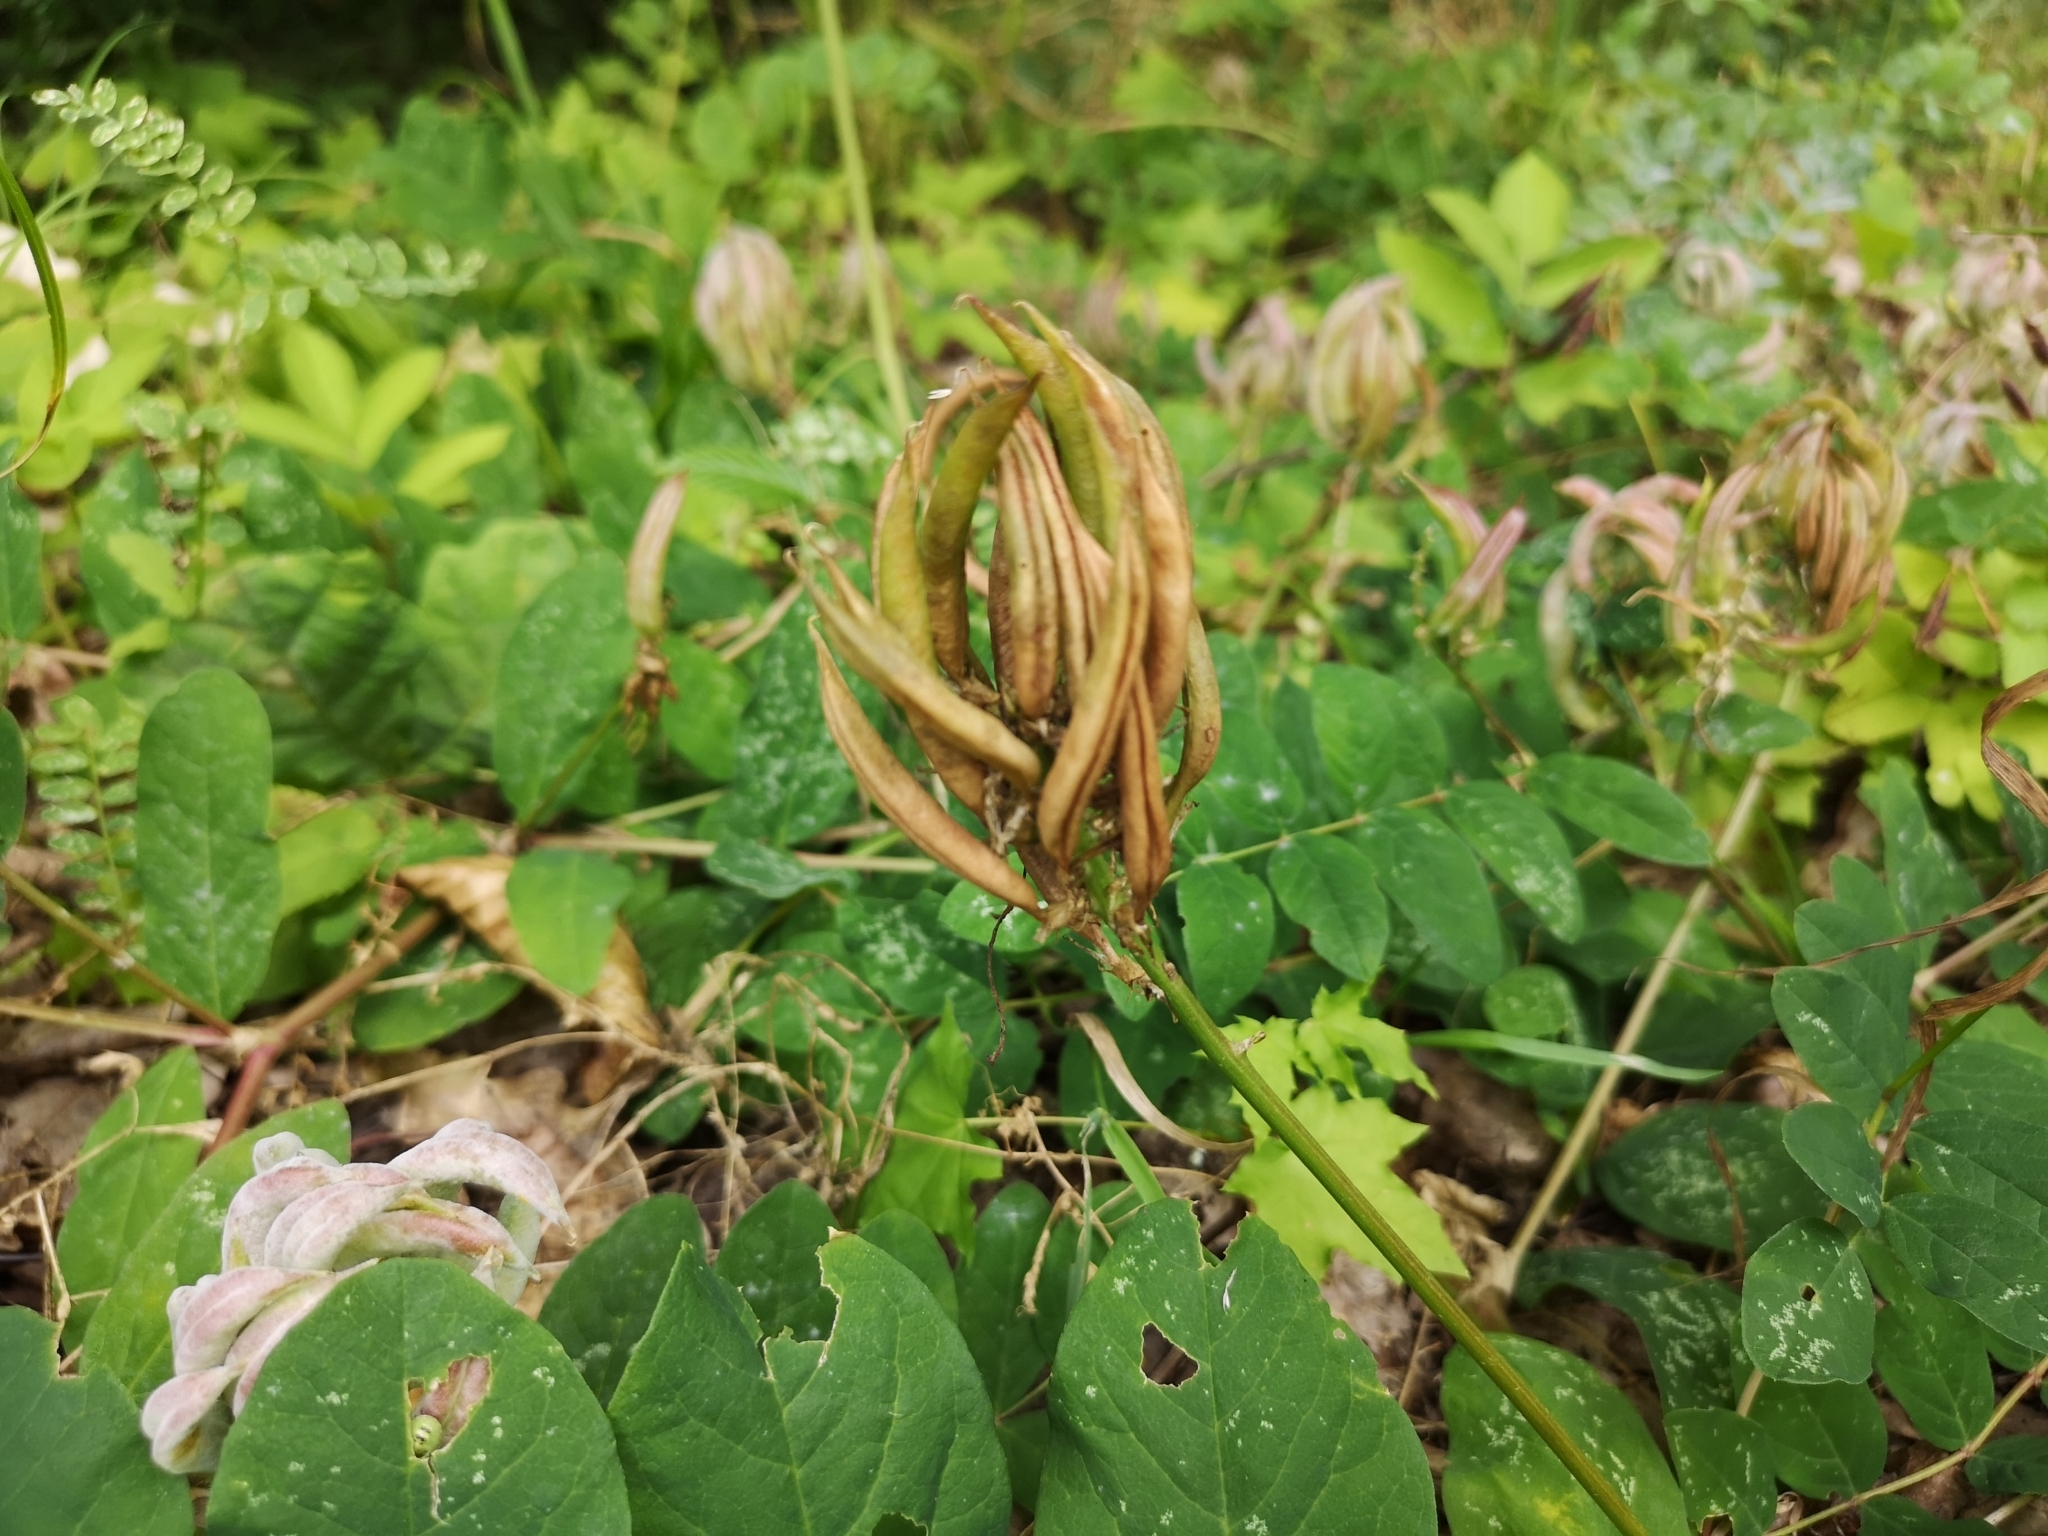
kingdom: Plantae
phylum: Tracheophyta
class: Magnoliopsida
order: Fabales
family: Fabaceae
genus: Astragalus
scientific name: Astragalus glycyphyllos
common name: Wild liquorice
